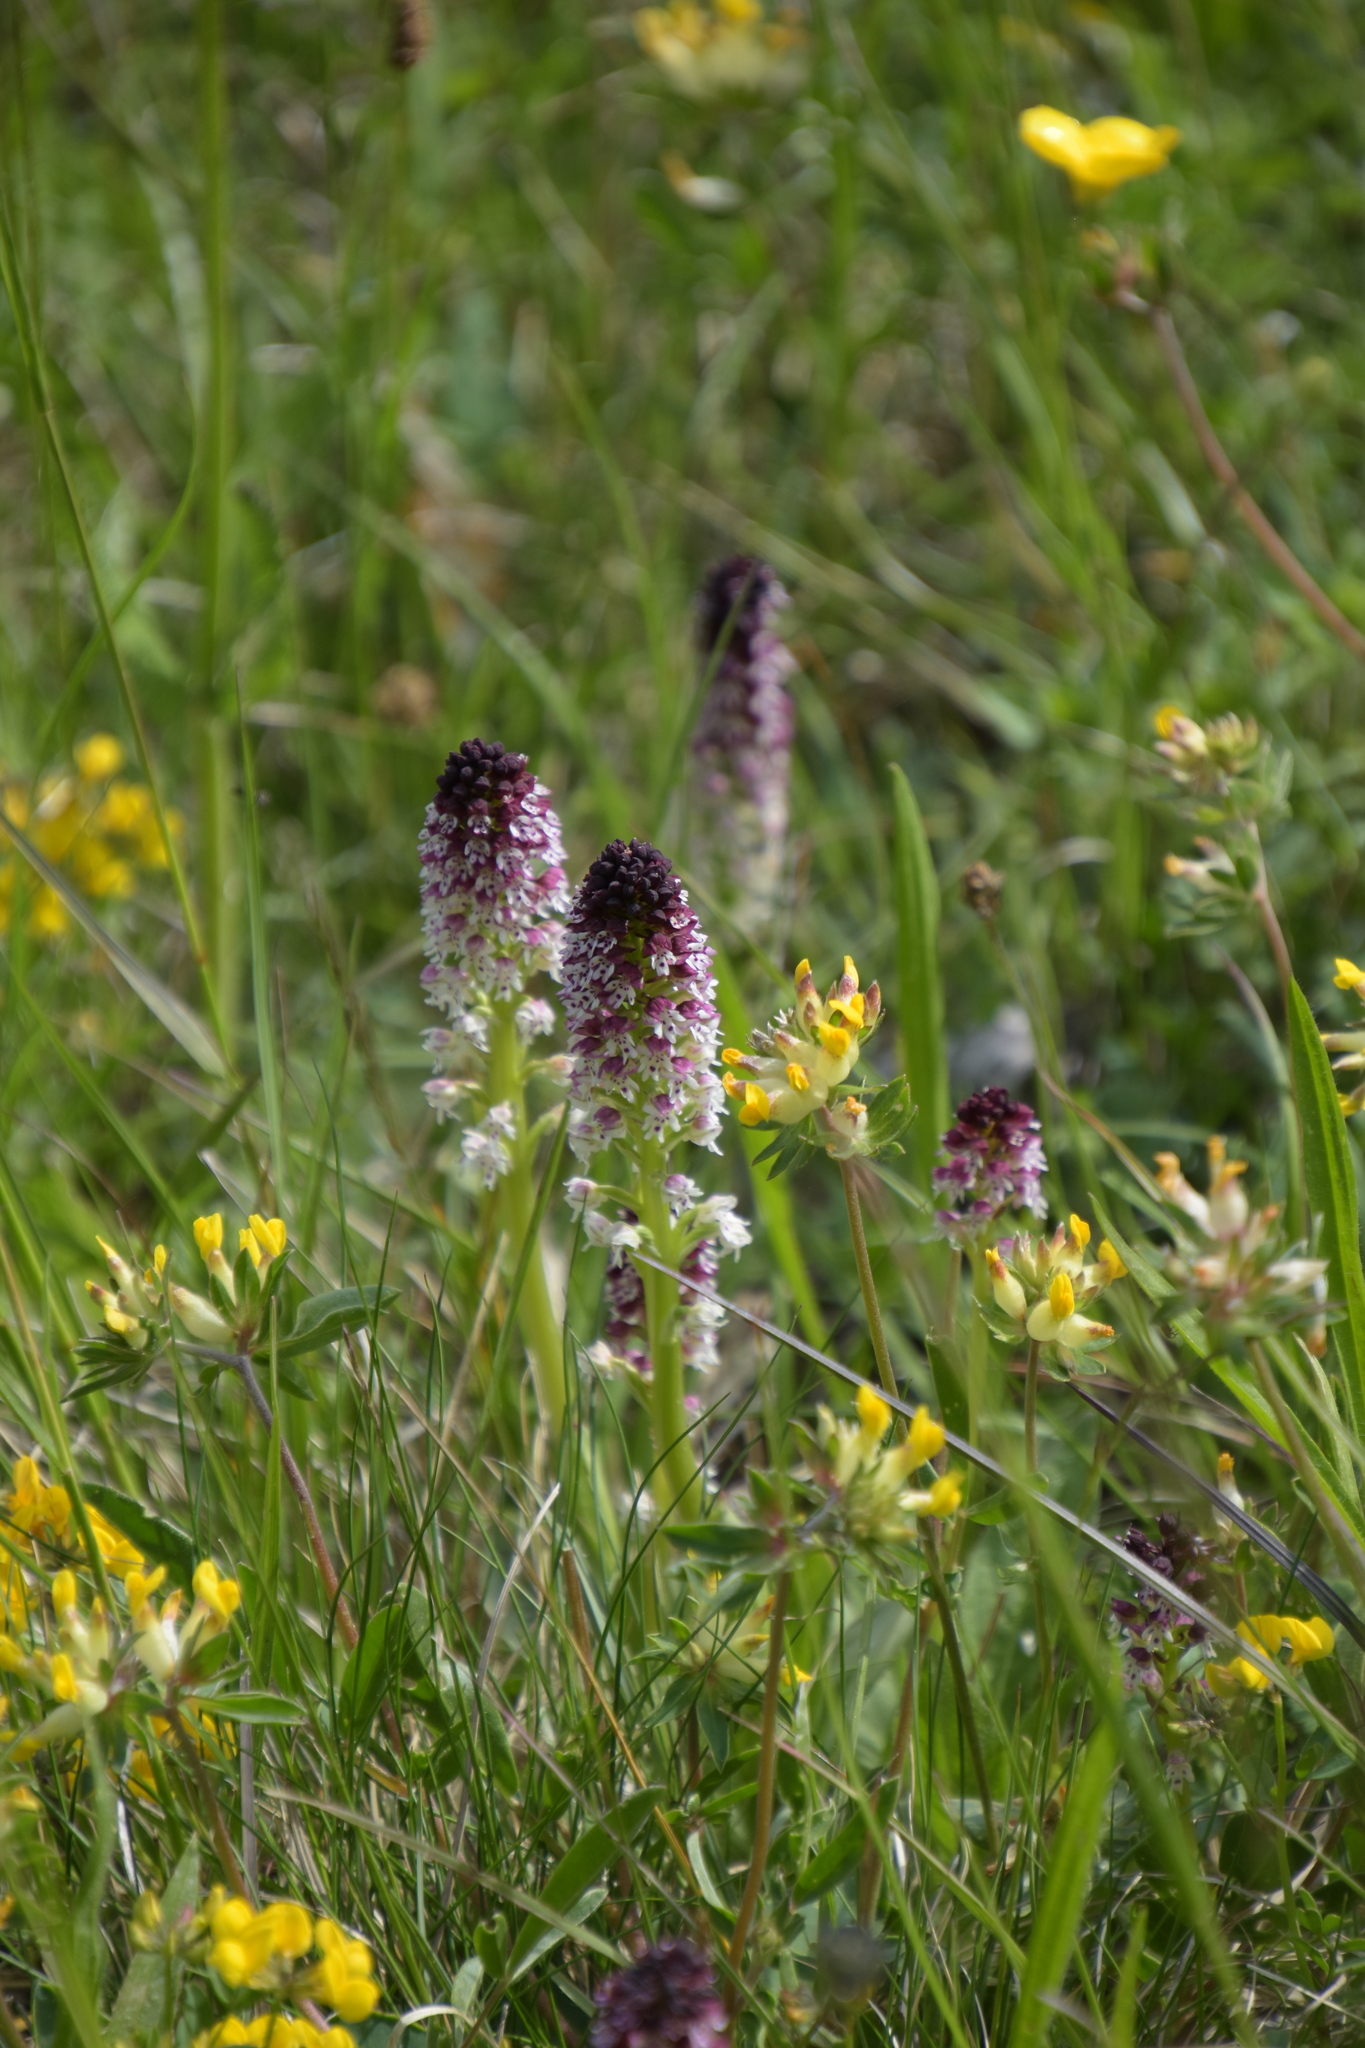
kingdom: Plantae
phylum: Tracheophyta
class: Liliopsida
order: Asparagales
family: Orchidaceae
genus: Neotinea
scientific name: Neotinea ustulata
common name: Burnt orchid
